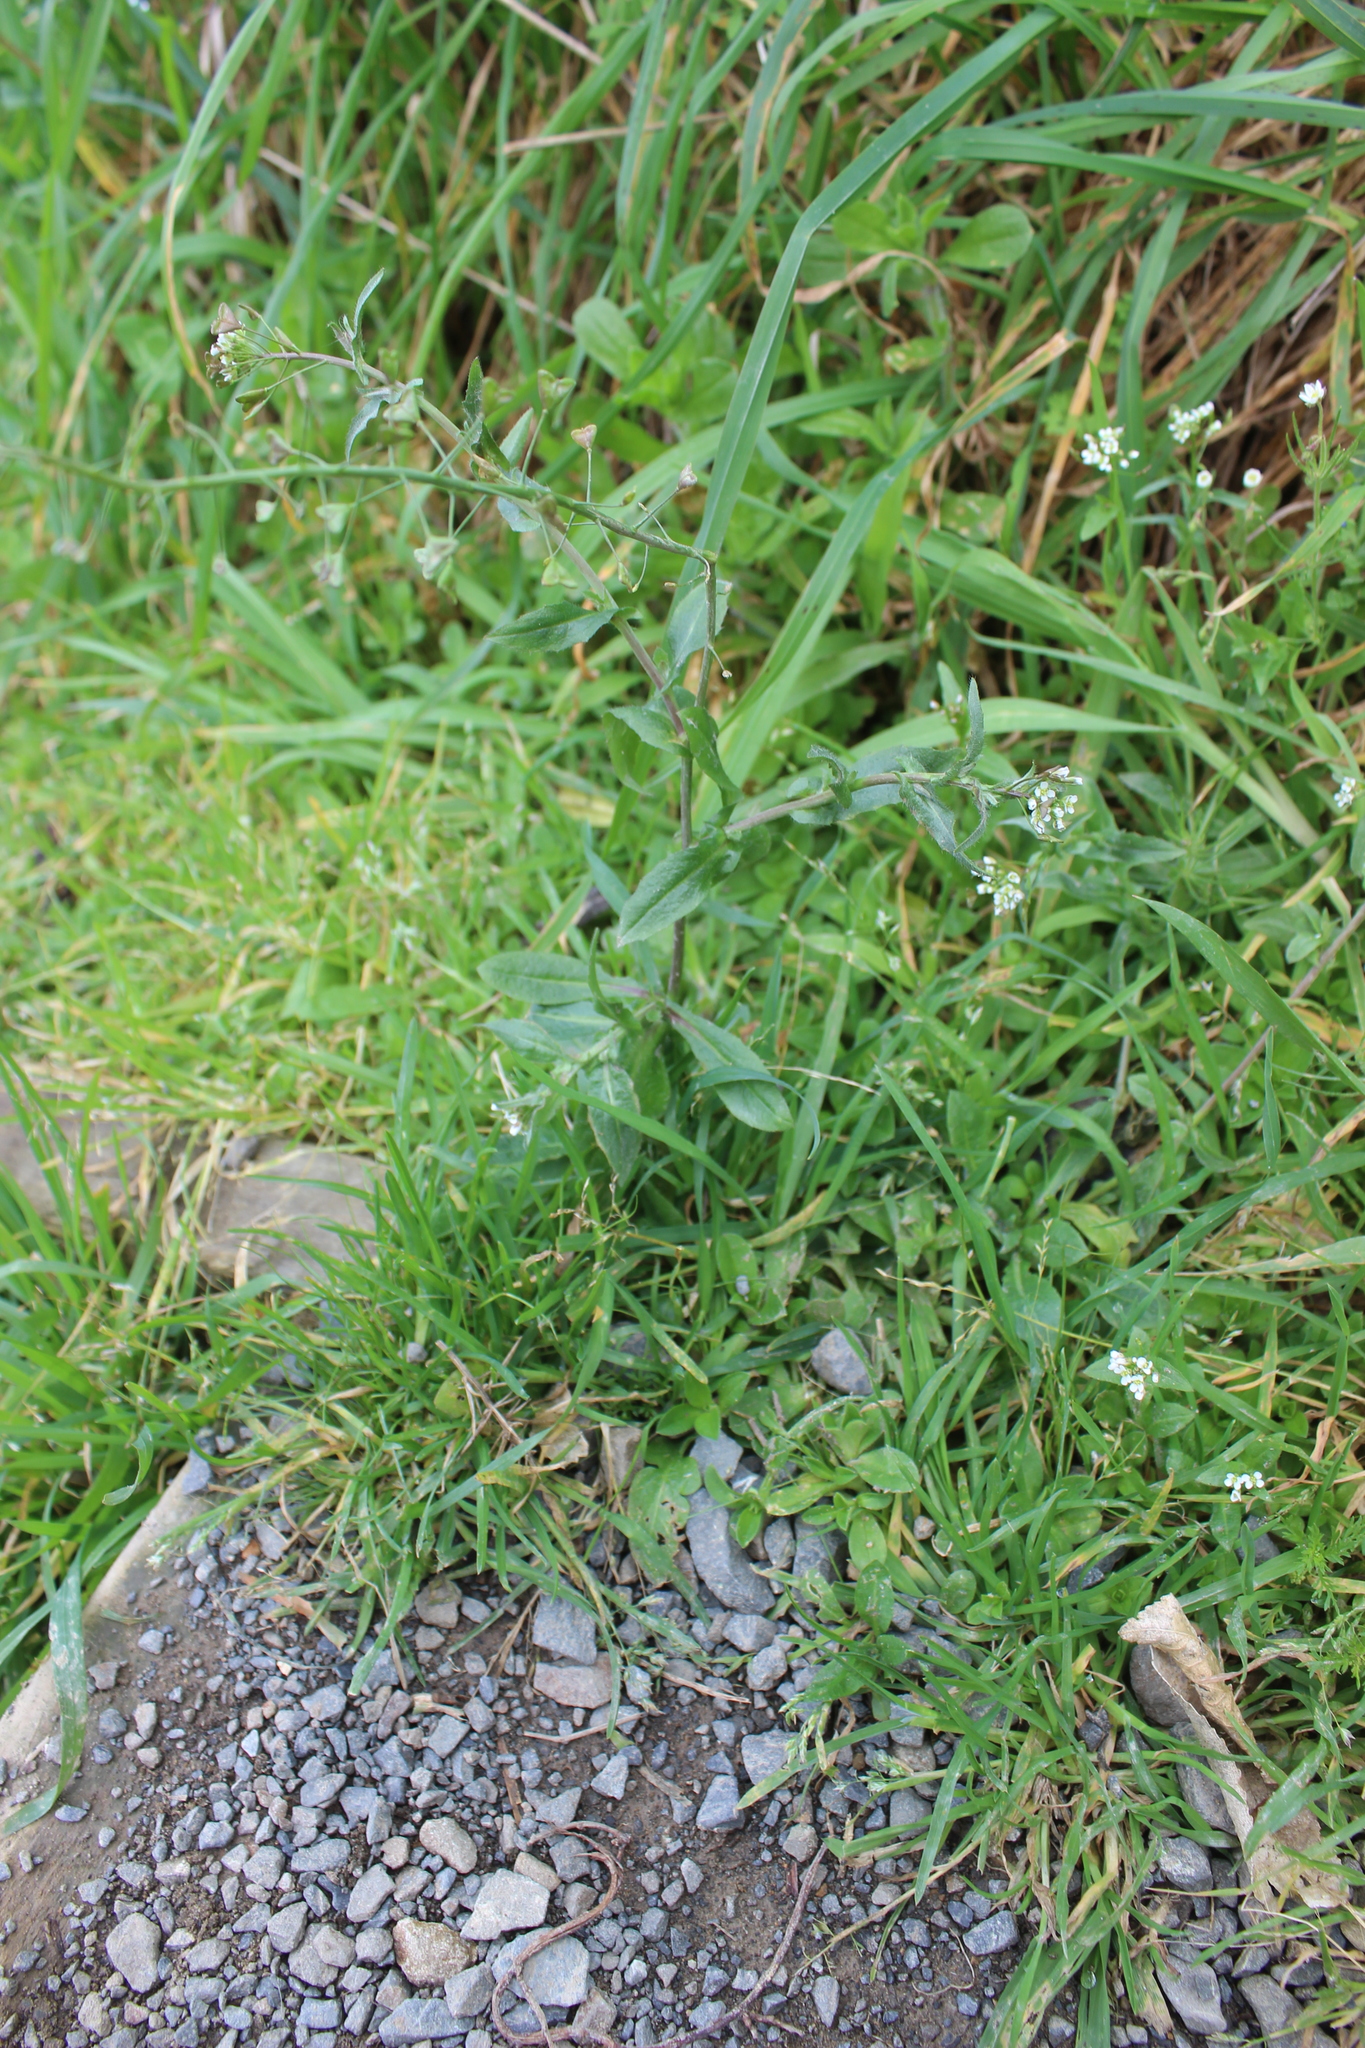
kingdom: Plantae
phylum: Tracheophyta
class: Magnoliopsida
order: Brassicales
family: Brassicaceae
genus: Capsella
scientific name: Capsella bursa-pastoris
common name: Shepherd's purse
